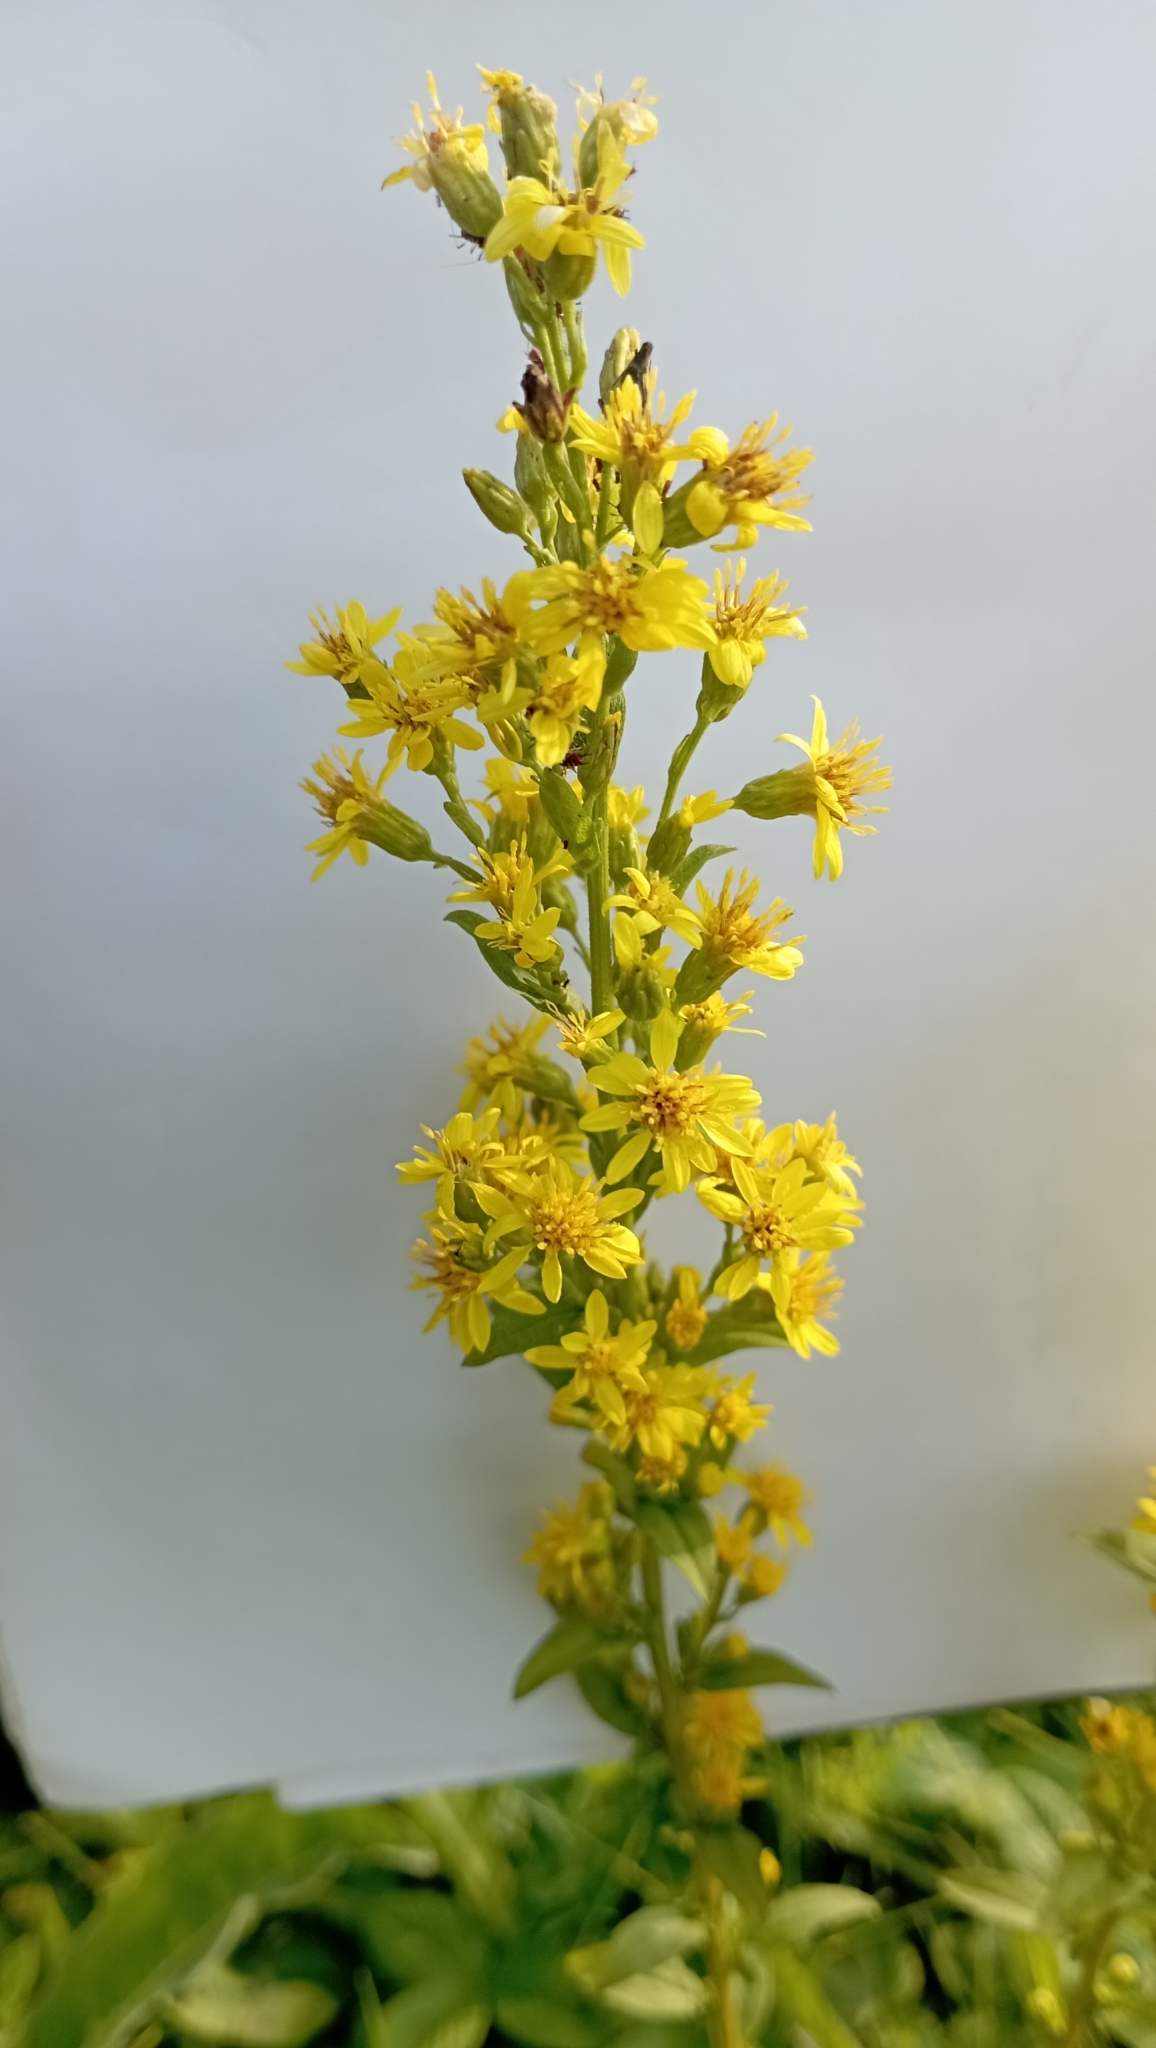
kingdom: Plantae
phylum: Tracheophyta
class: Magnoliopsida
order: Asterales
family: Asteraceae
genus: Solidago
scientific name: Solidago virgaurea
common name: Goldenrod
